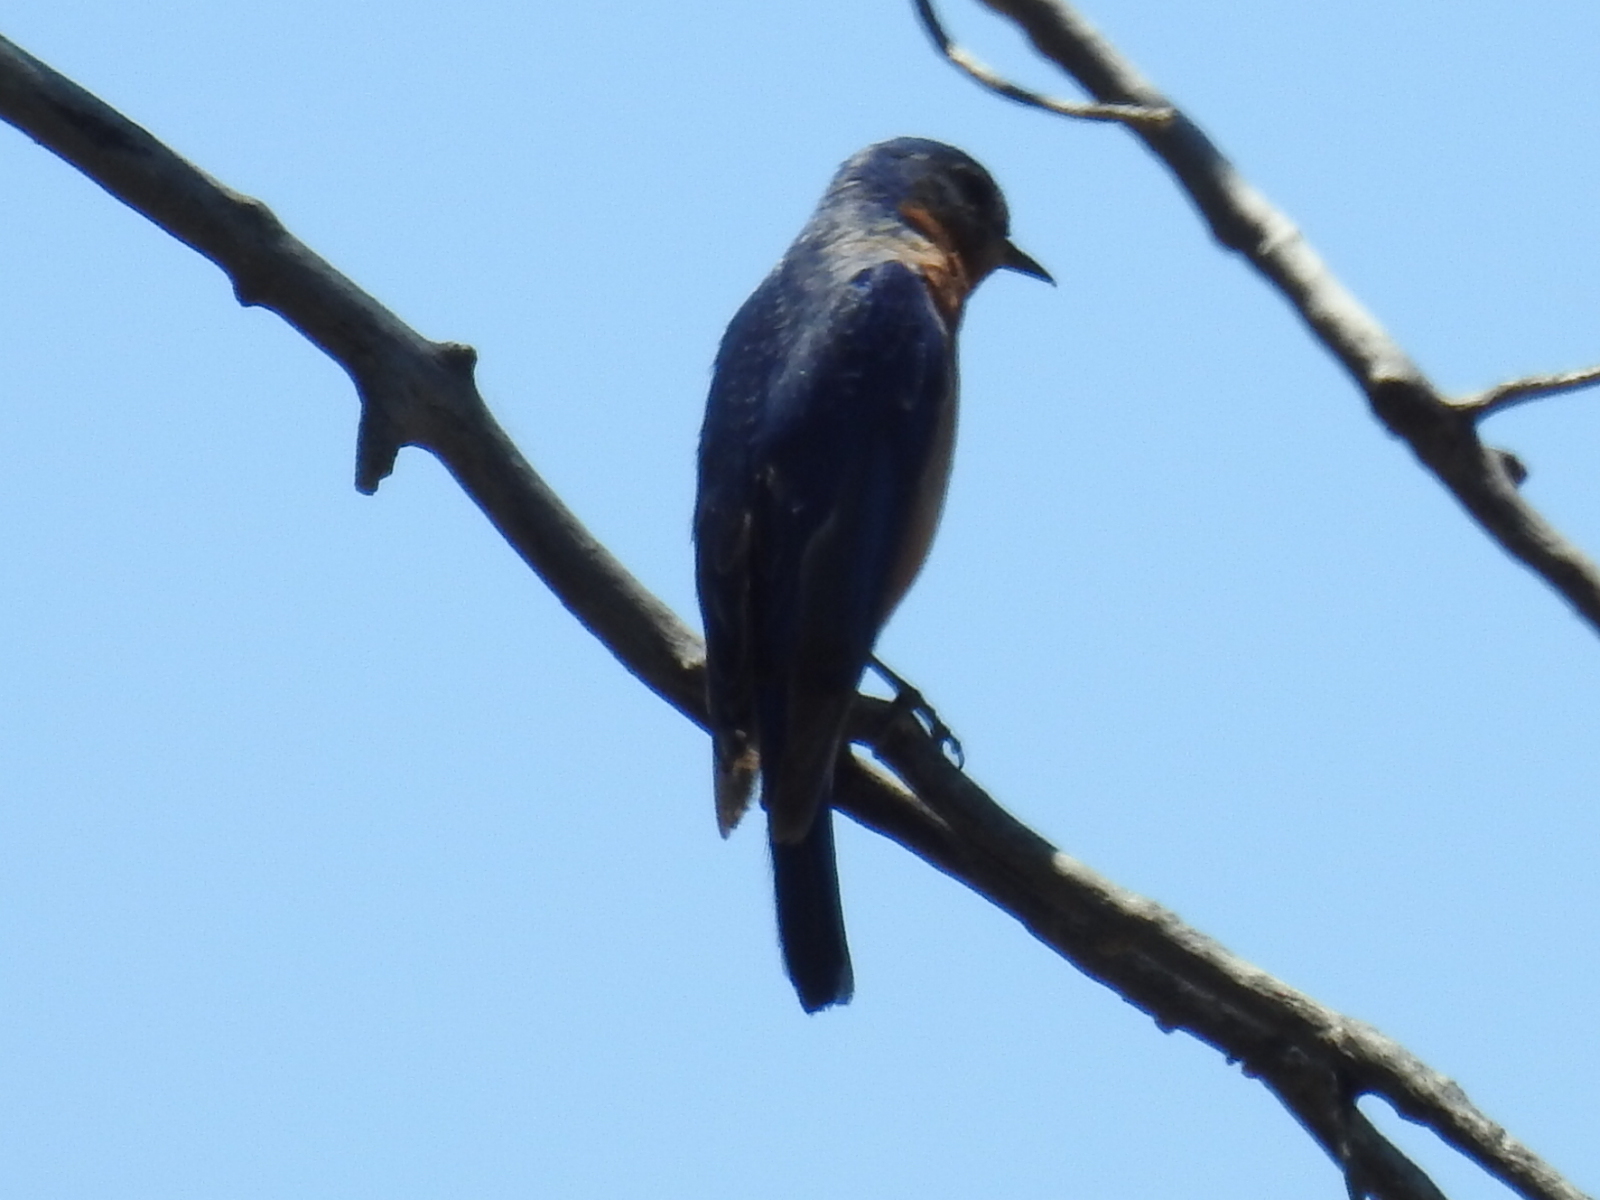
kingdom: Animalia
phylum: Chordata
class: Aves
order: Passeriformes
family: Turdidae
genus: Sialia
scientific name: Sialia sialis
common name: Eastern bluebird
